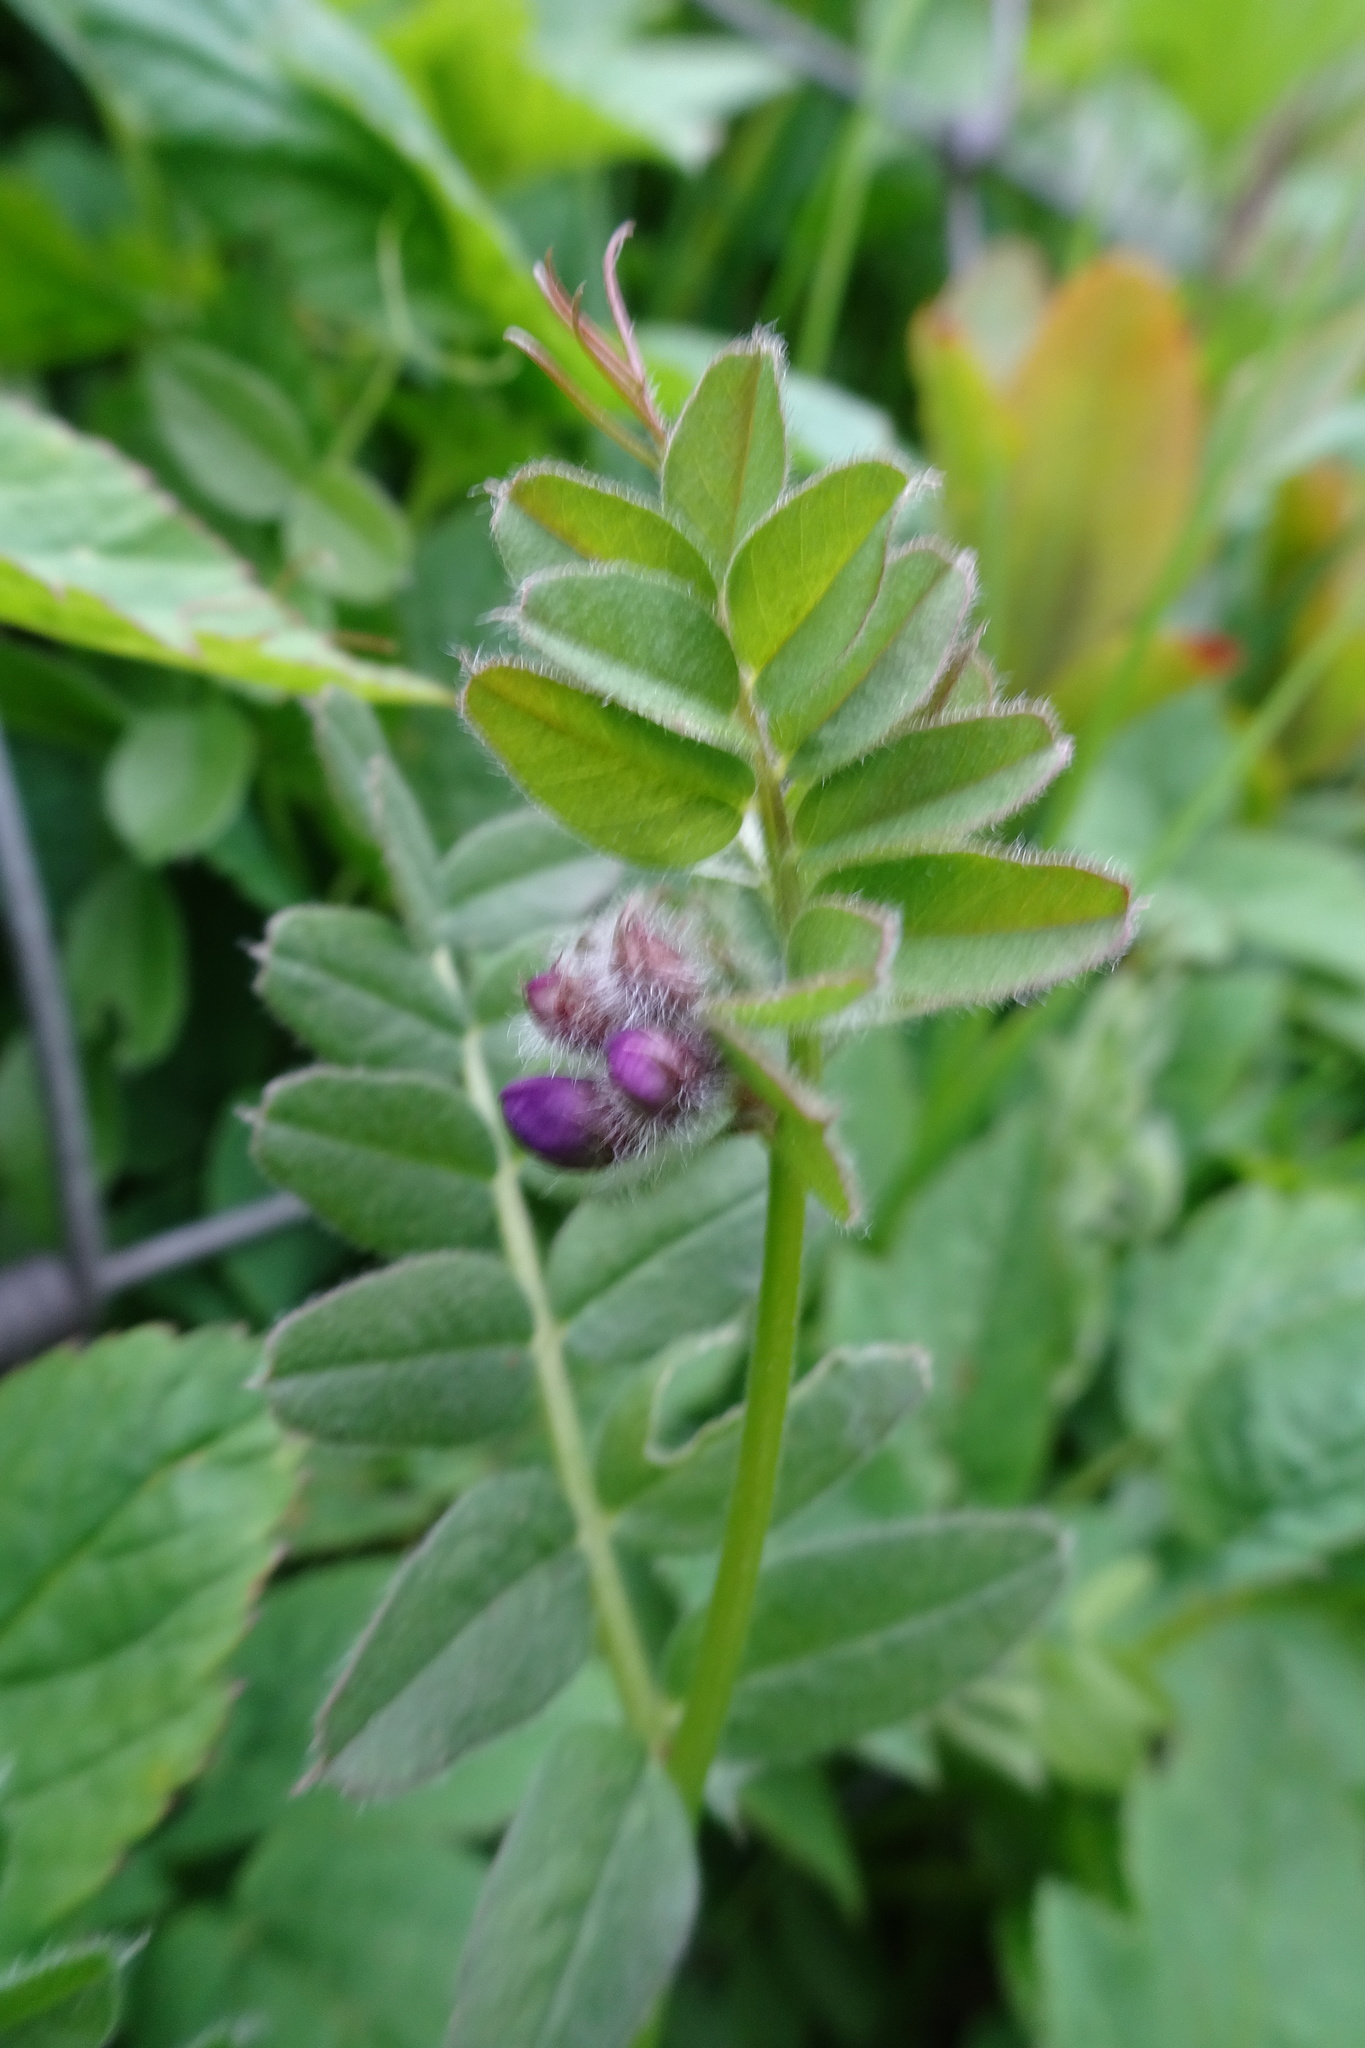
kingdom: Plantae
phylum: Tracheophyta
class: Magnoliopsida
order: Fabales
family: Fabaceae
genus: Vicia
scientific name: Vicia sepium
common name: Bush vetch
